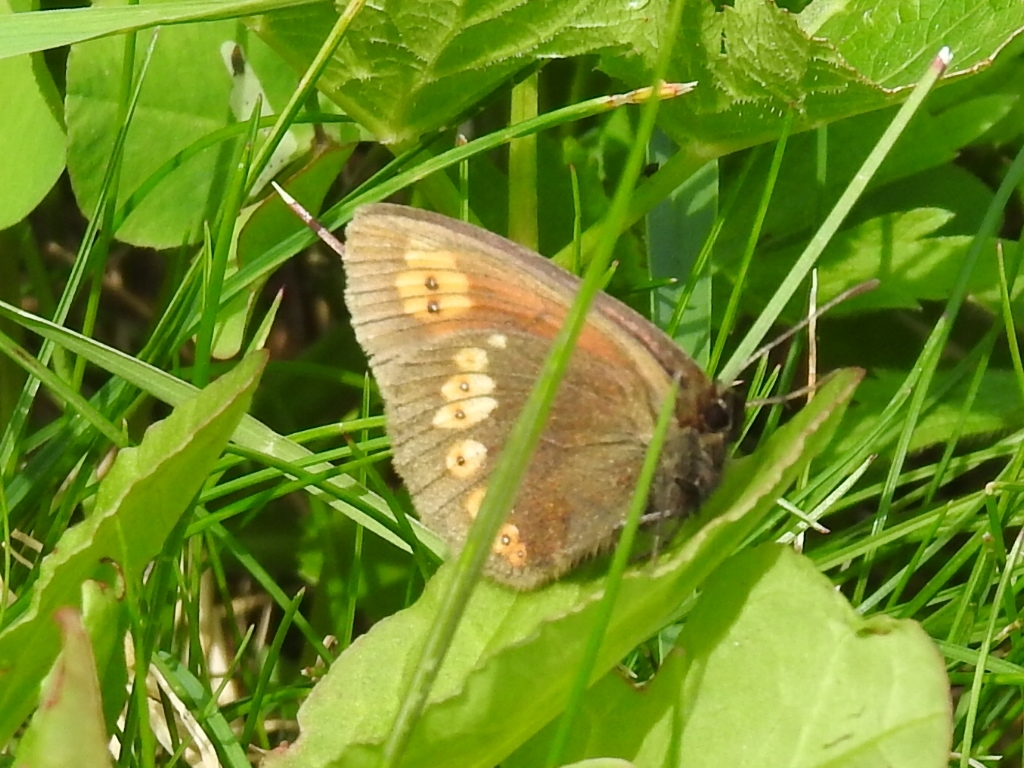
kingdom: Animalia
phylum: Arthropoda
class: Insecta
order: Lepidoptera
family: Nymphalidae
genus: Erebia
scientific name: Erebia alberganus
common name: Almond-eyed ringlet
